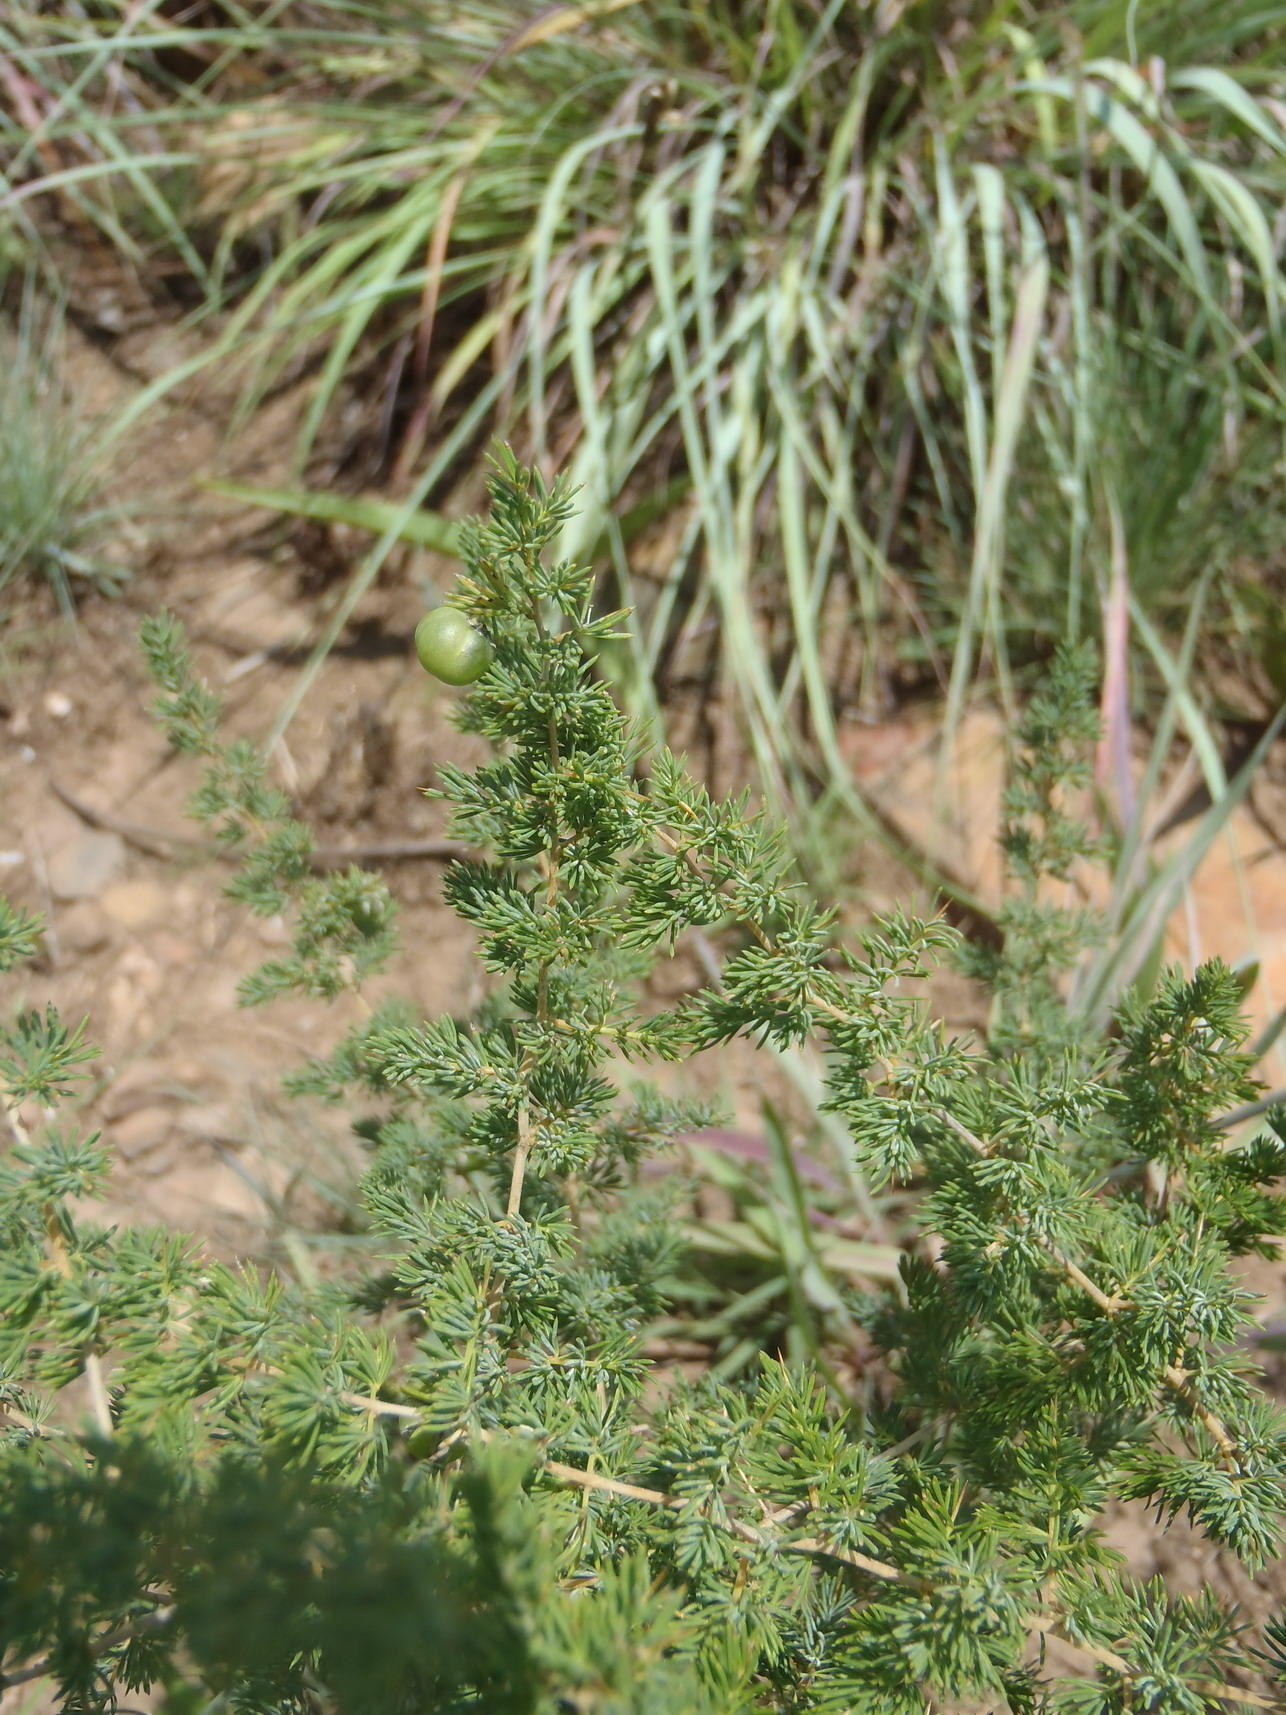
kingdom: Plantae
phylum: Tracheophyta
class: Liliopsida
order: Asparagales
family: Asparagaceae
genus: Asparagus
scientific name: Asparagus flavicaulis
